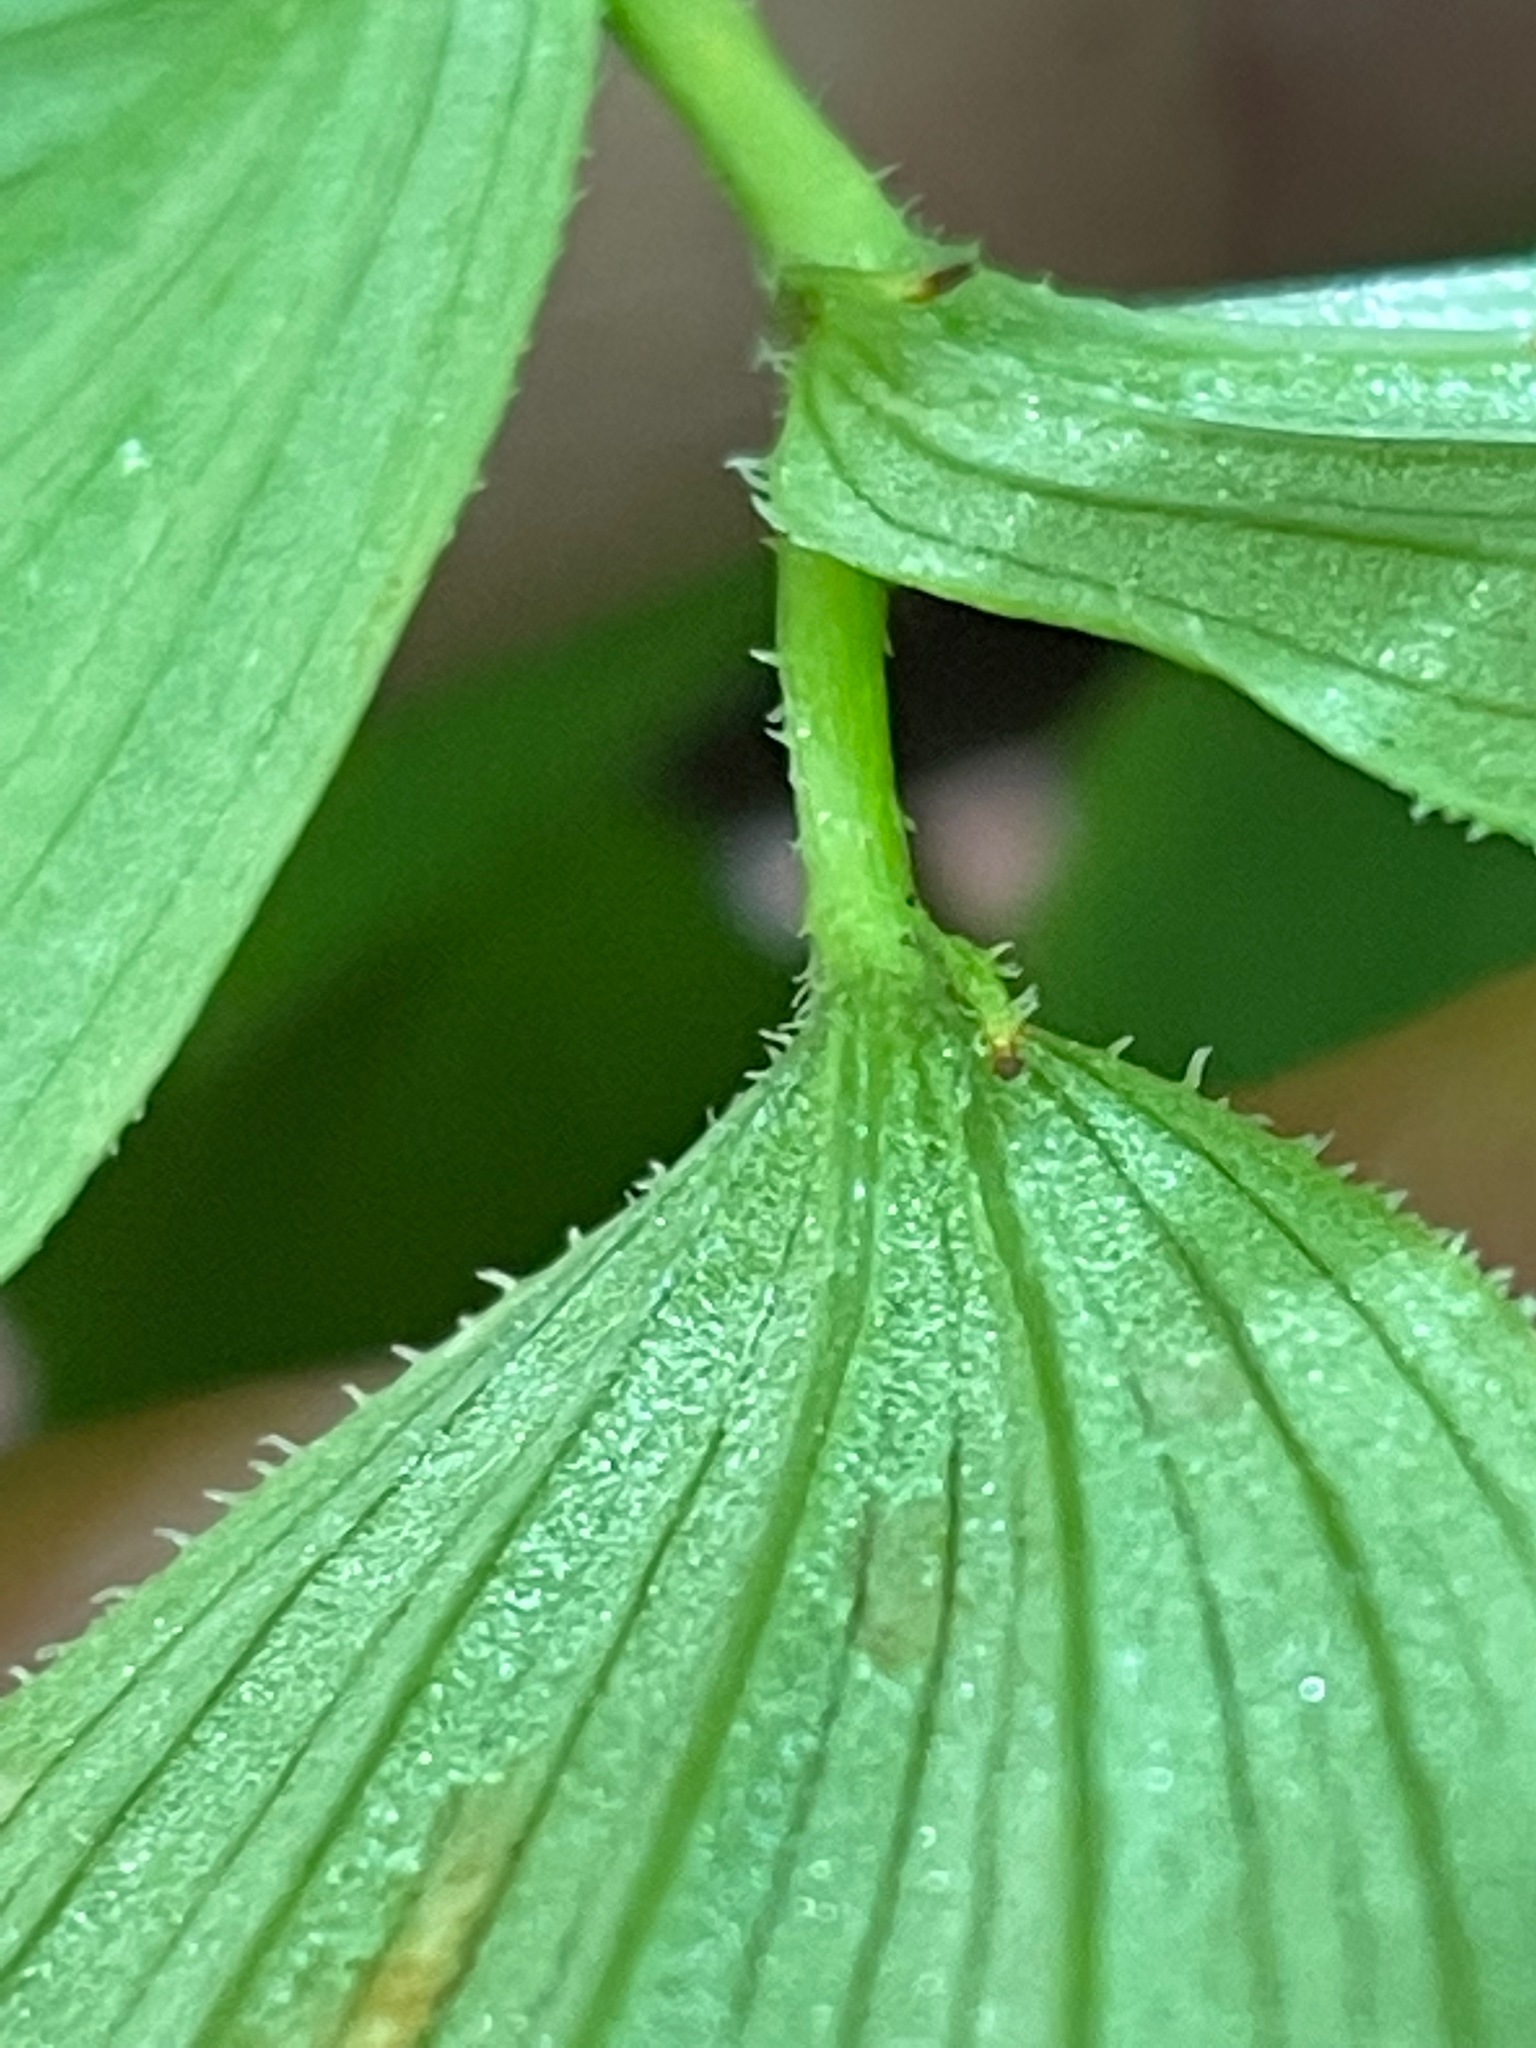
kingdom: Plantae
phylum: Tracheophyta
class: Liliopsida
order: Liliales
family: Liliaceae
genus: Streptopus
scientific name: Streptopus lanceolatus
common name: Rose mandarin
